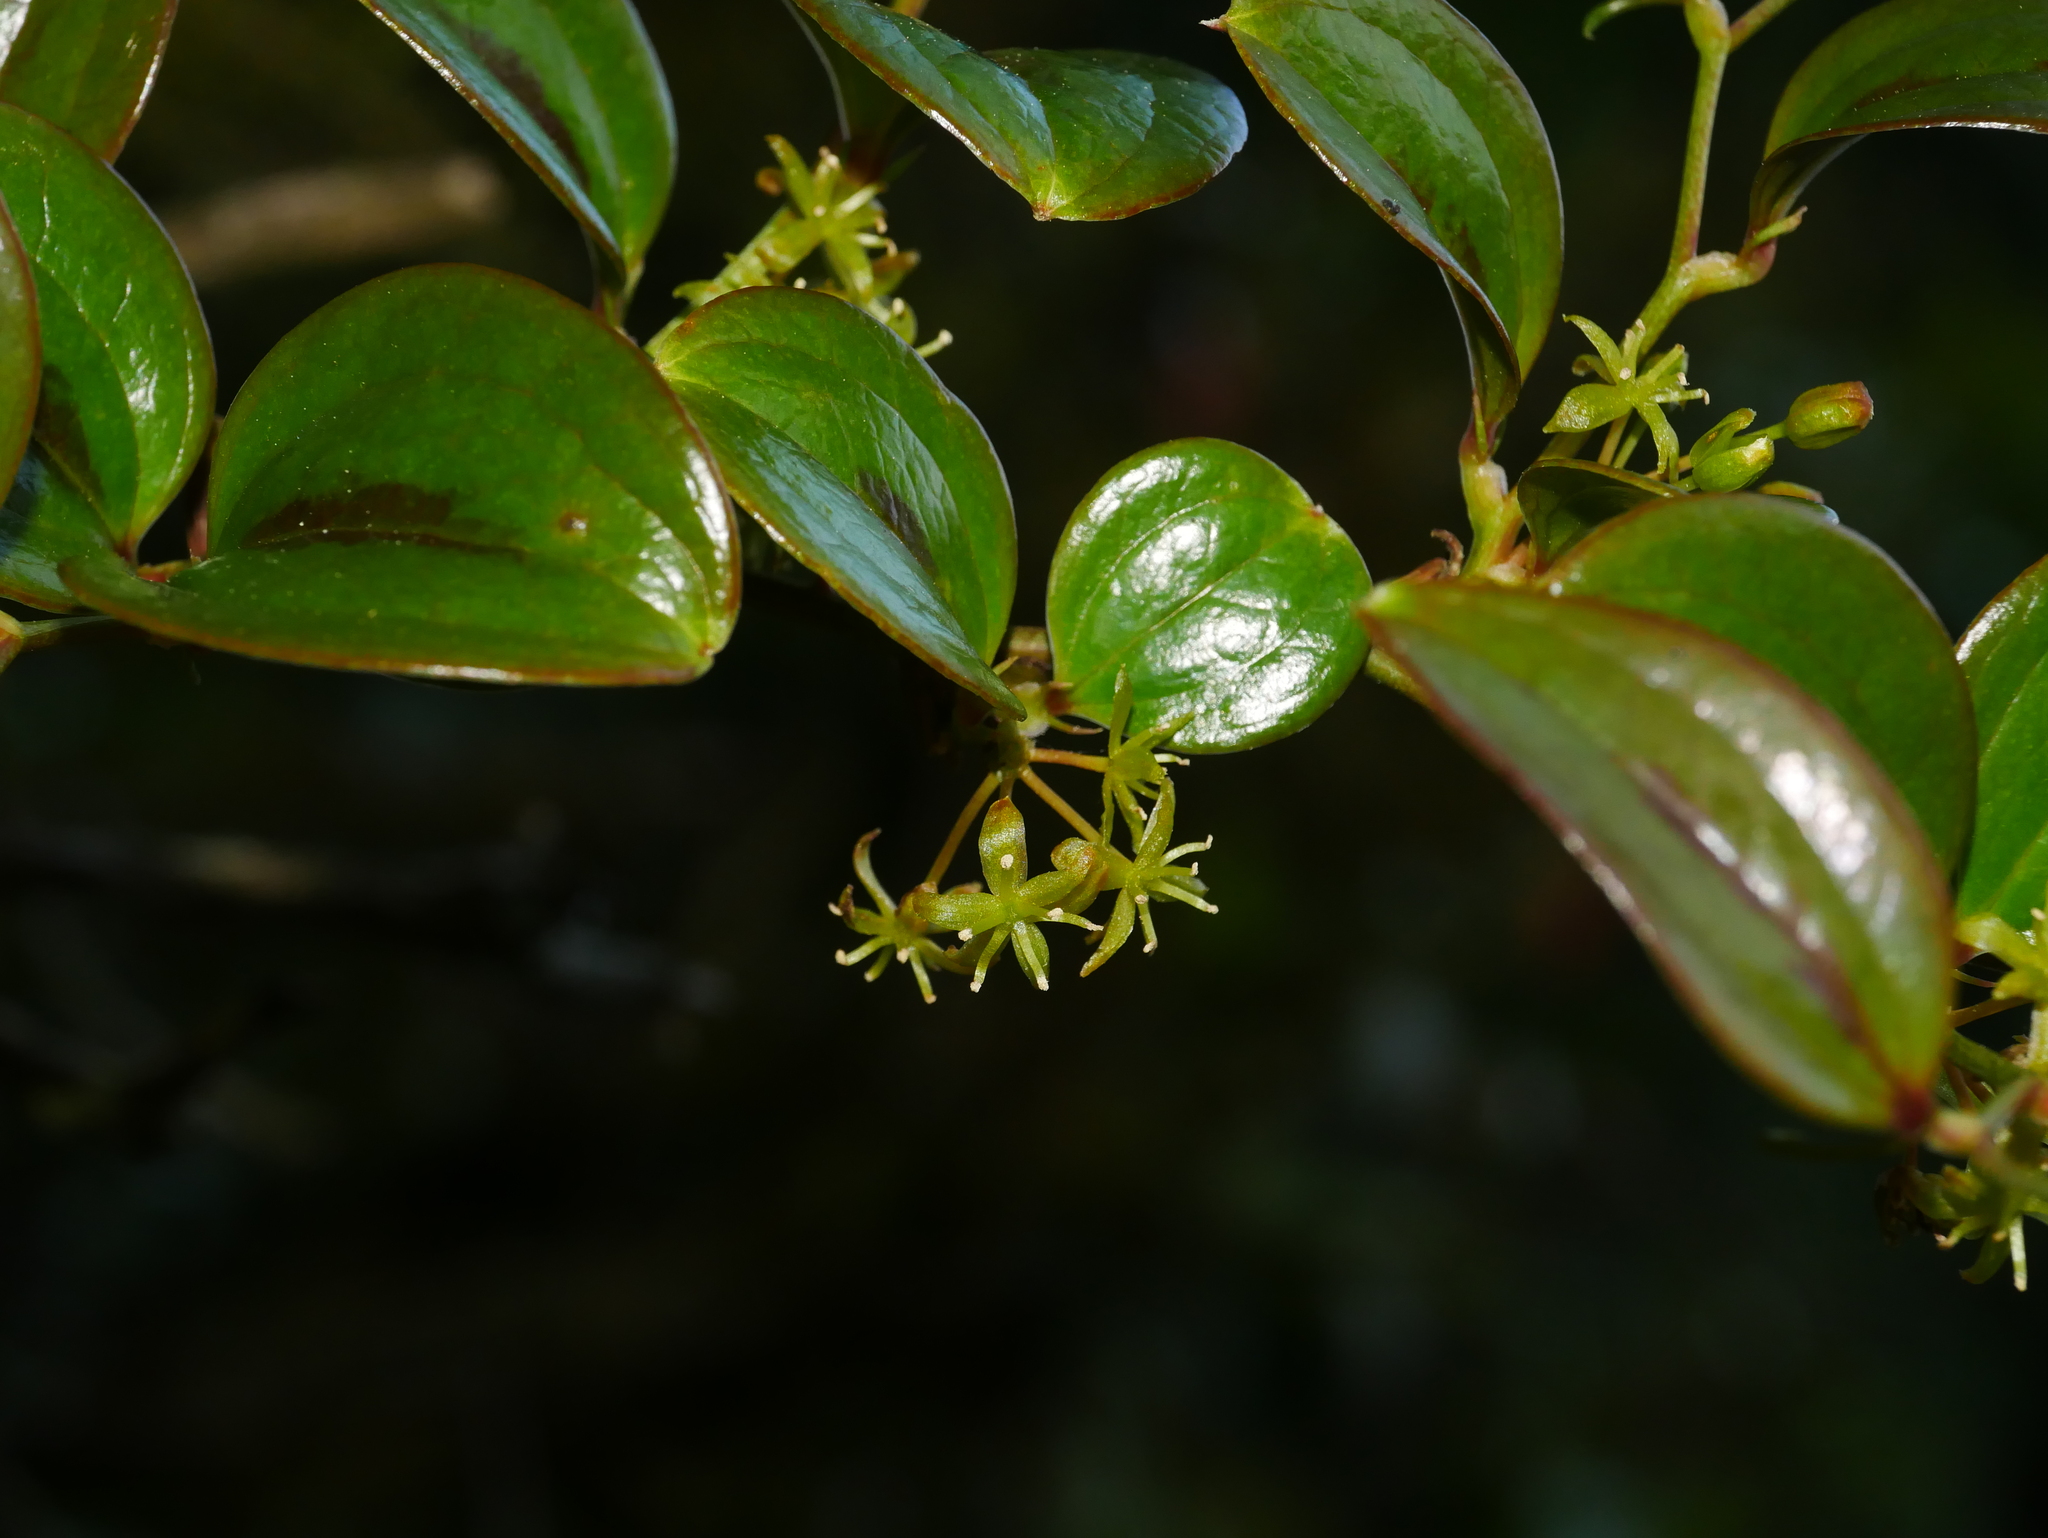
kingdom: Plantae
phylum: Tracheophyta
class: Liliopsida
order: Liliales
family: Smilacaceae
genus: Smilax
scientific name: Smilax discotis
